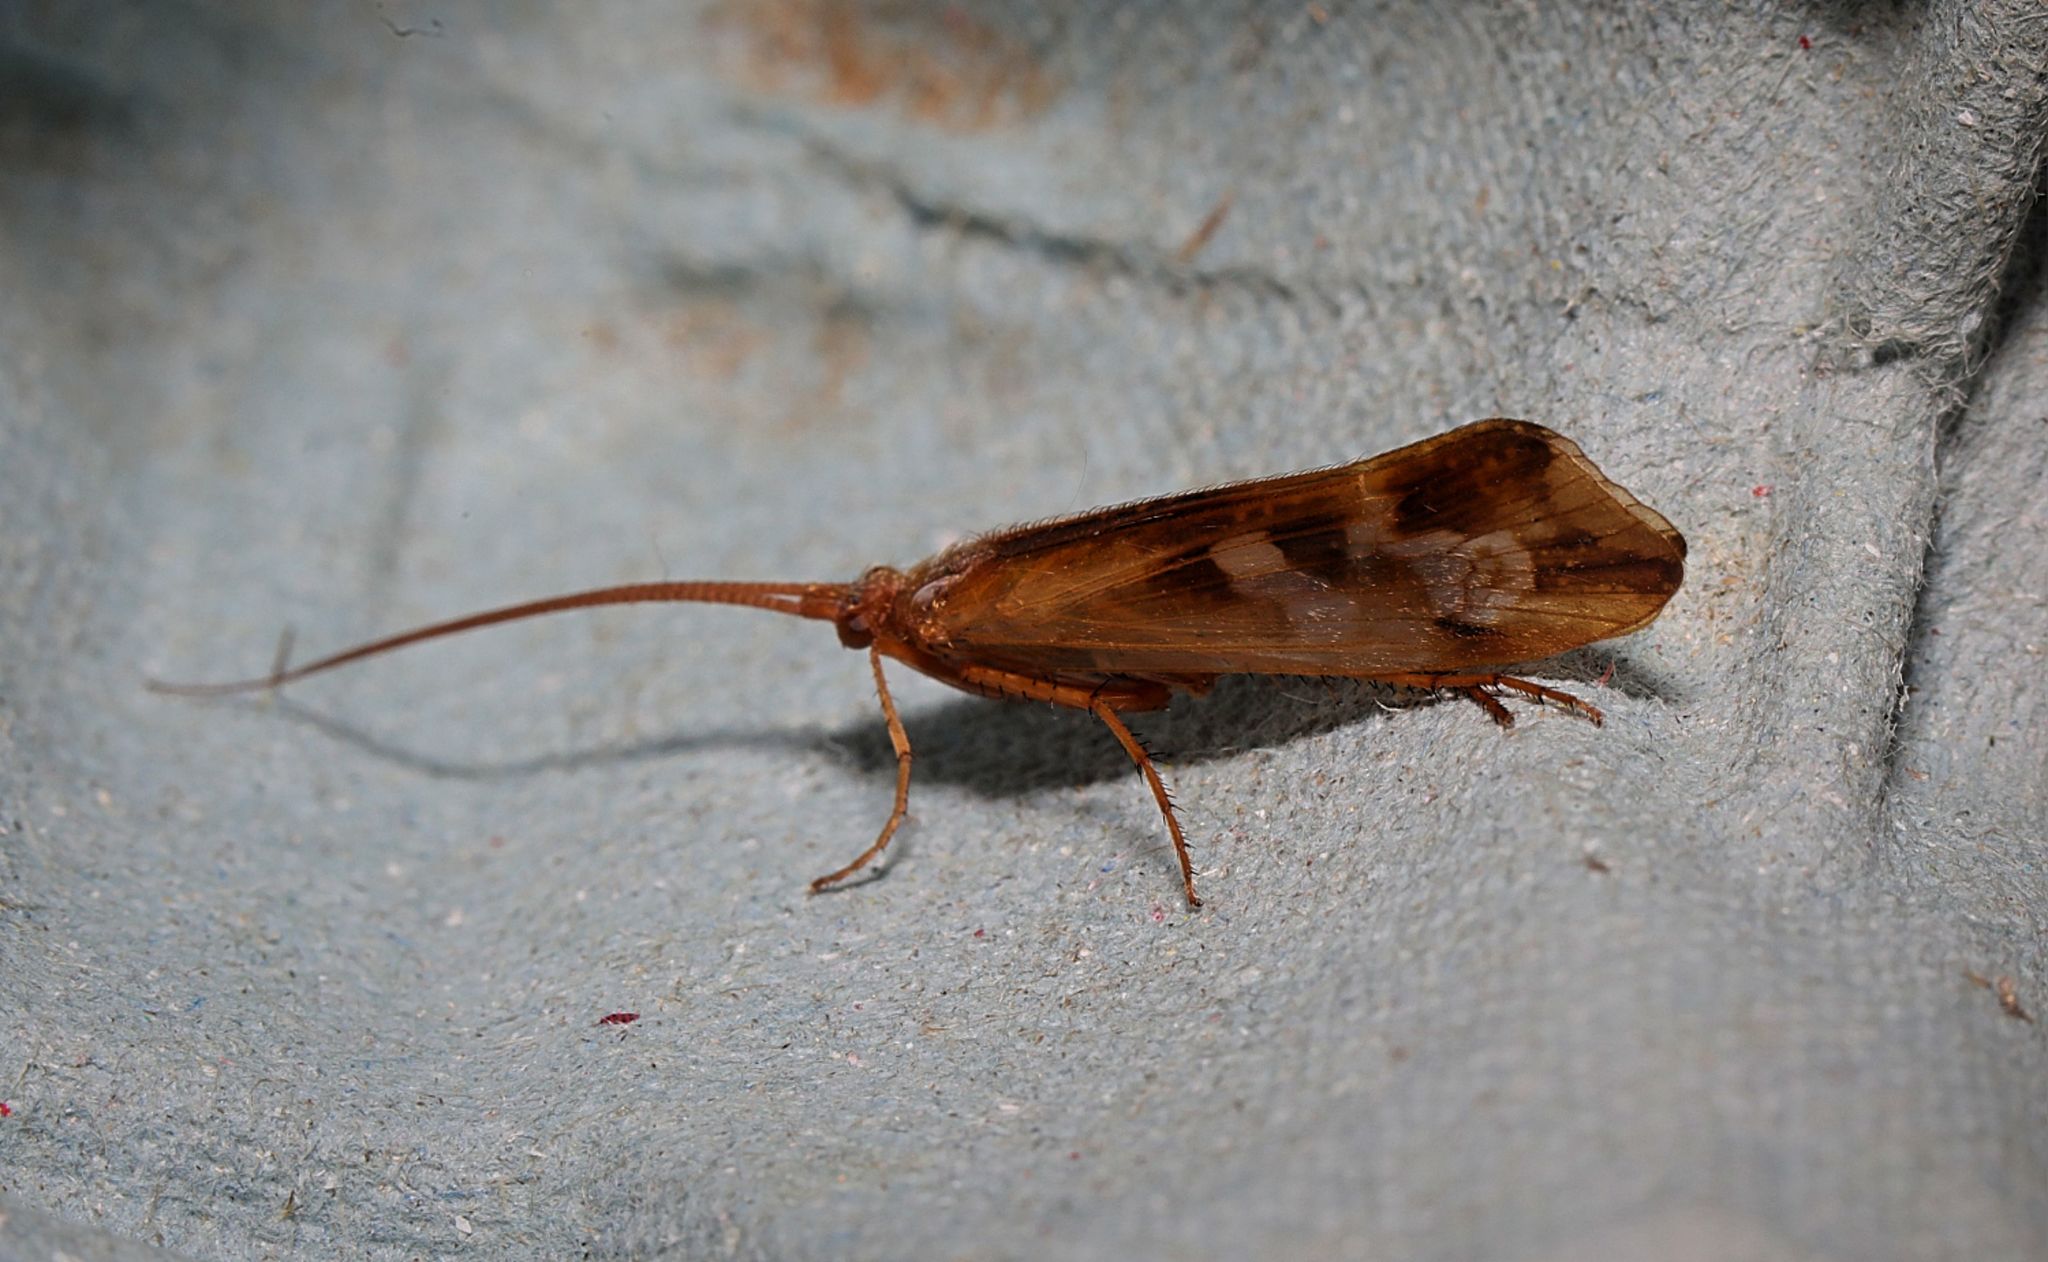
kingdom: Animalia
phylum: Arthropoda
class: Insecta
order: Trichoptera
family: Limnephilidae
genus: Limnephilus
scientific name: Limnephilus lunatus
